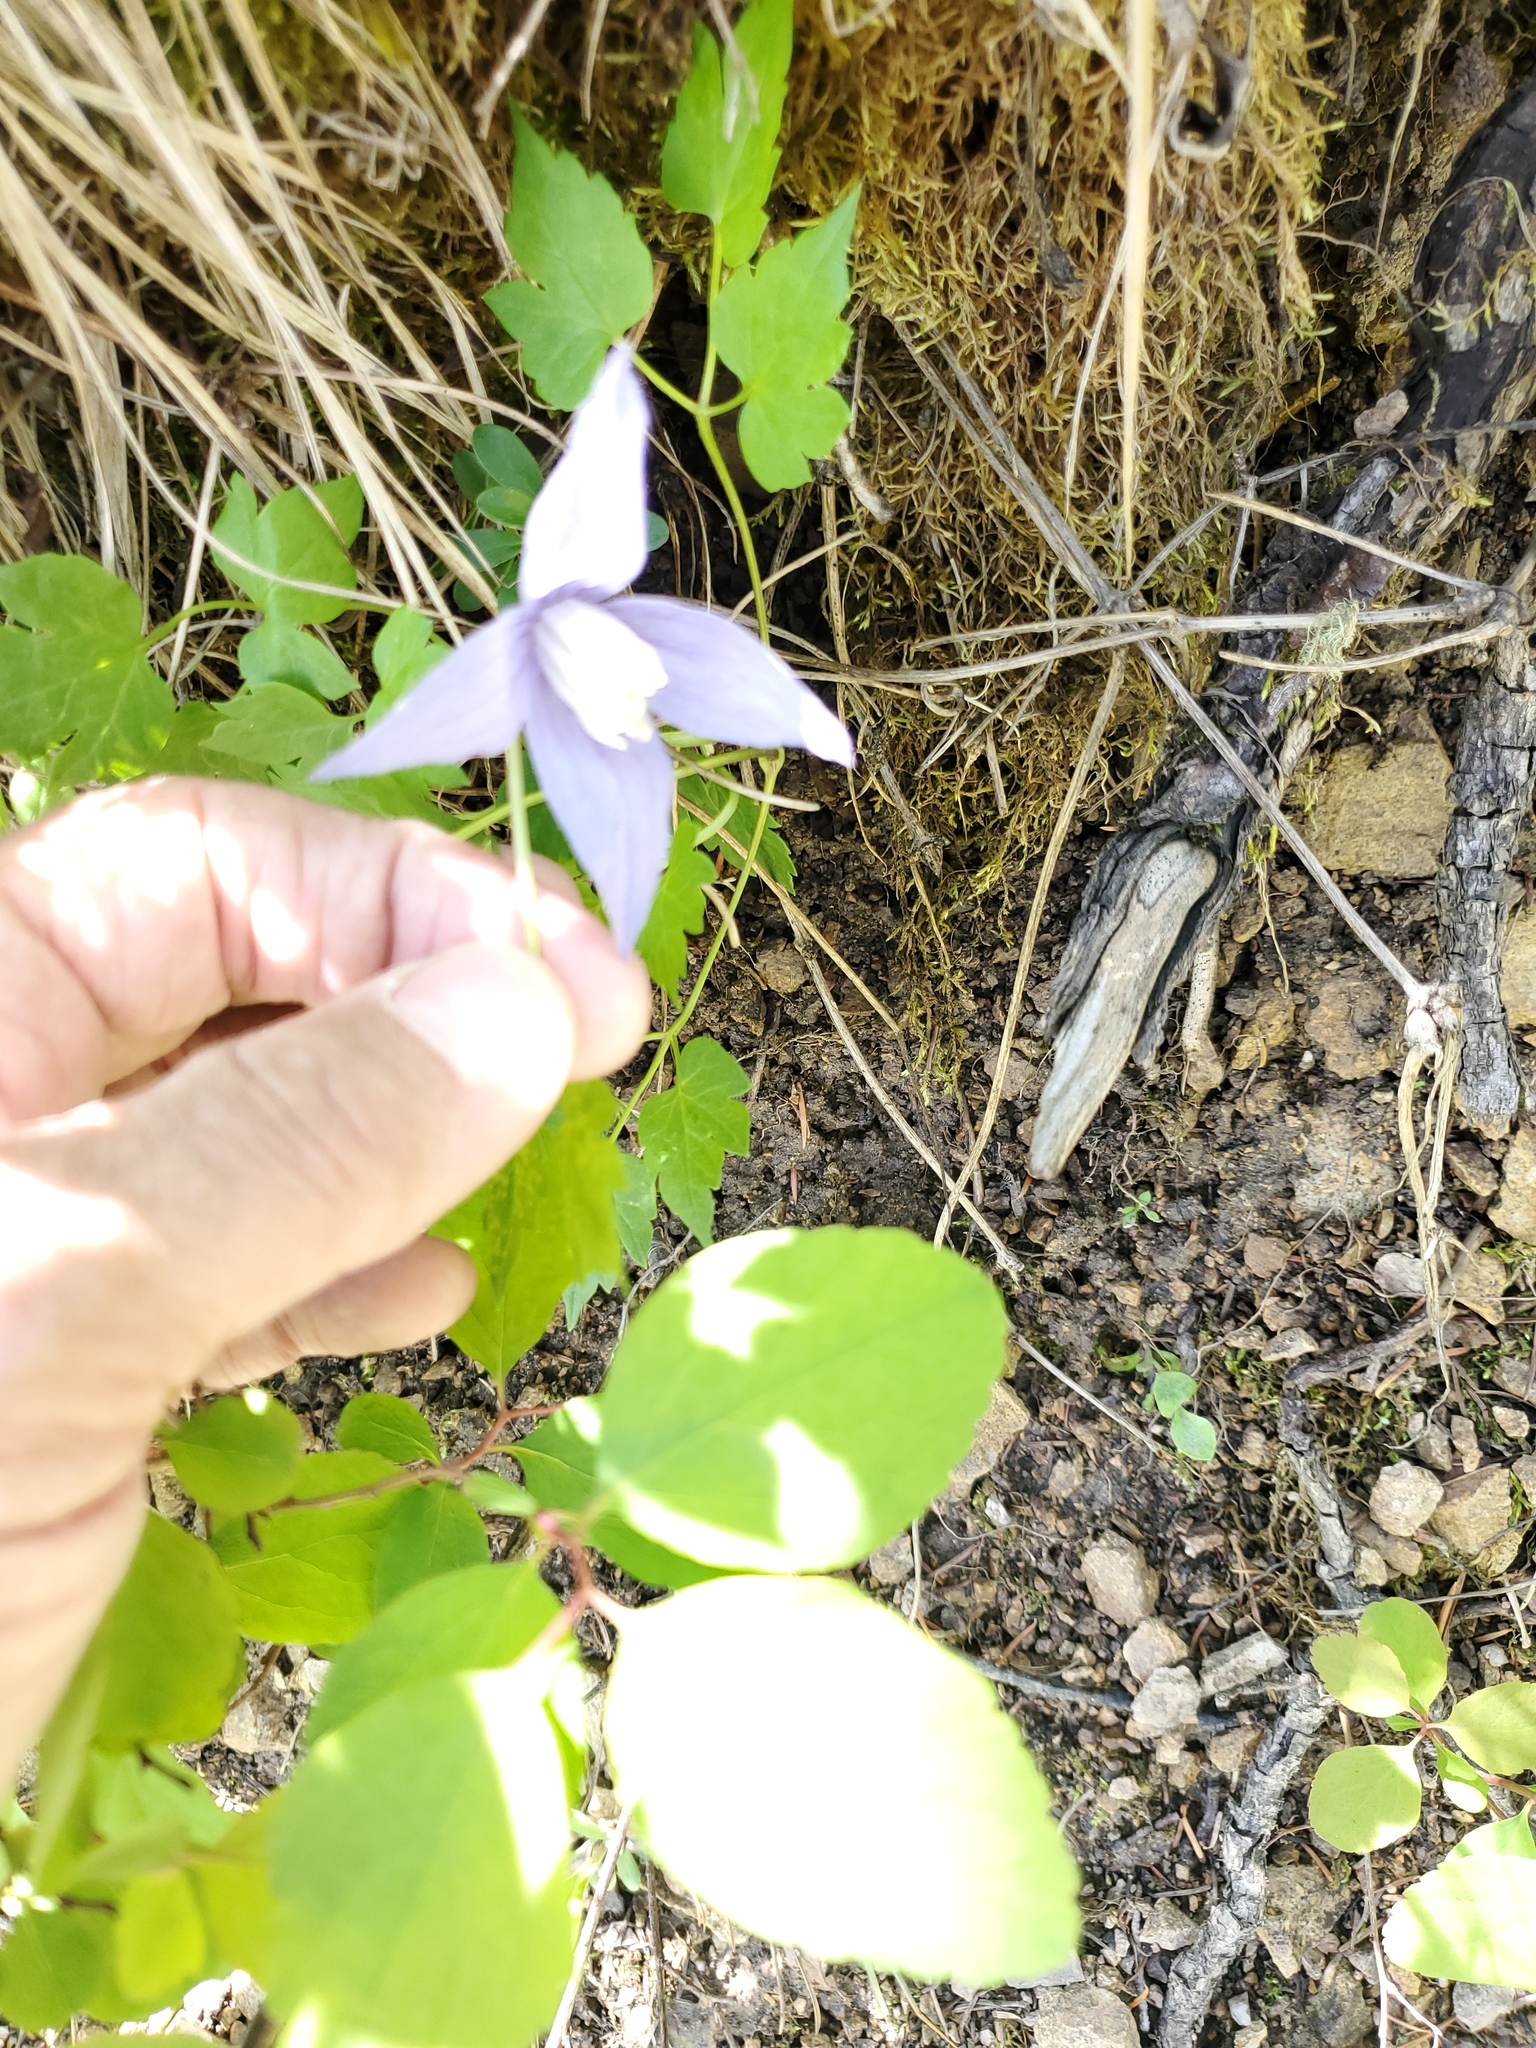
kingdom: Plantae
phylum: Tracheophyta
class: Magnoliopsida
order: Ranunculales
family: Ranunculaceae
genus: Clematis
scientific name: Clematis occidentalis
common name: Purple clematis
